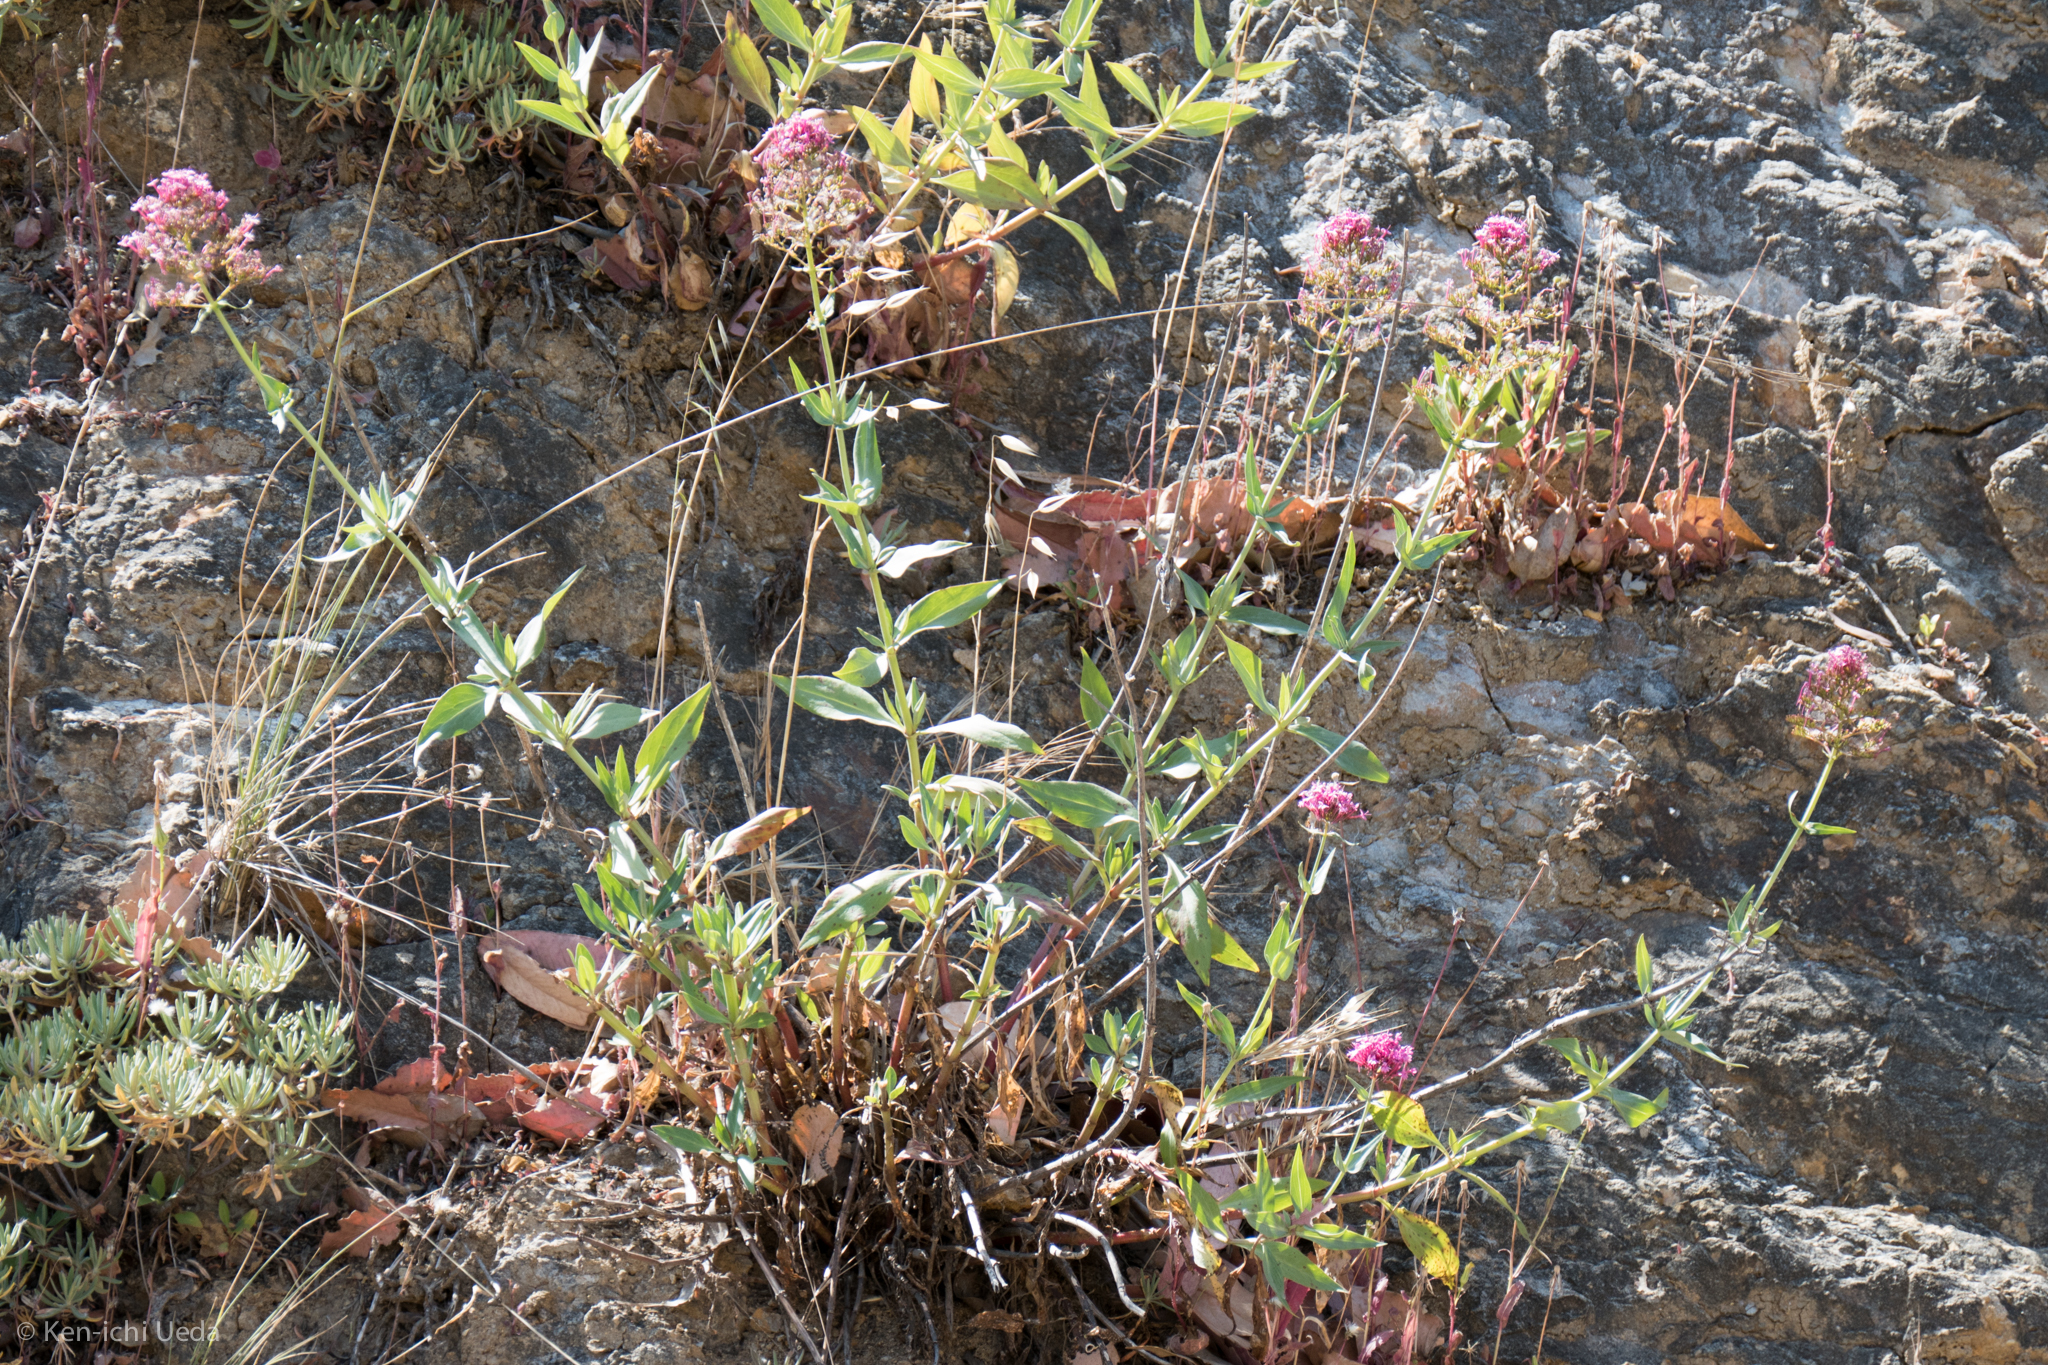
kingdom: Plantae
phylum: Tracheophyta
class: Magnoliopsida
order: Dipsacales
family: Caprifoliaceae
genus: Centranthus
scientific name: Centranthus ruber
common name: Red valerian
